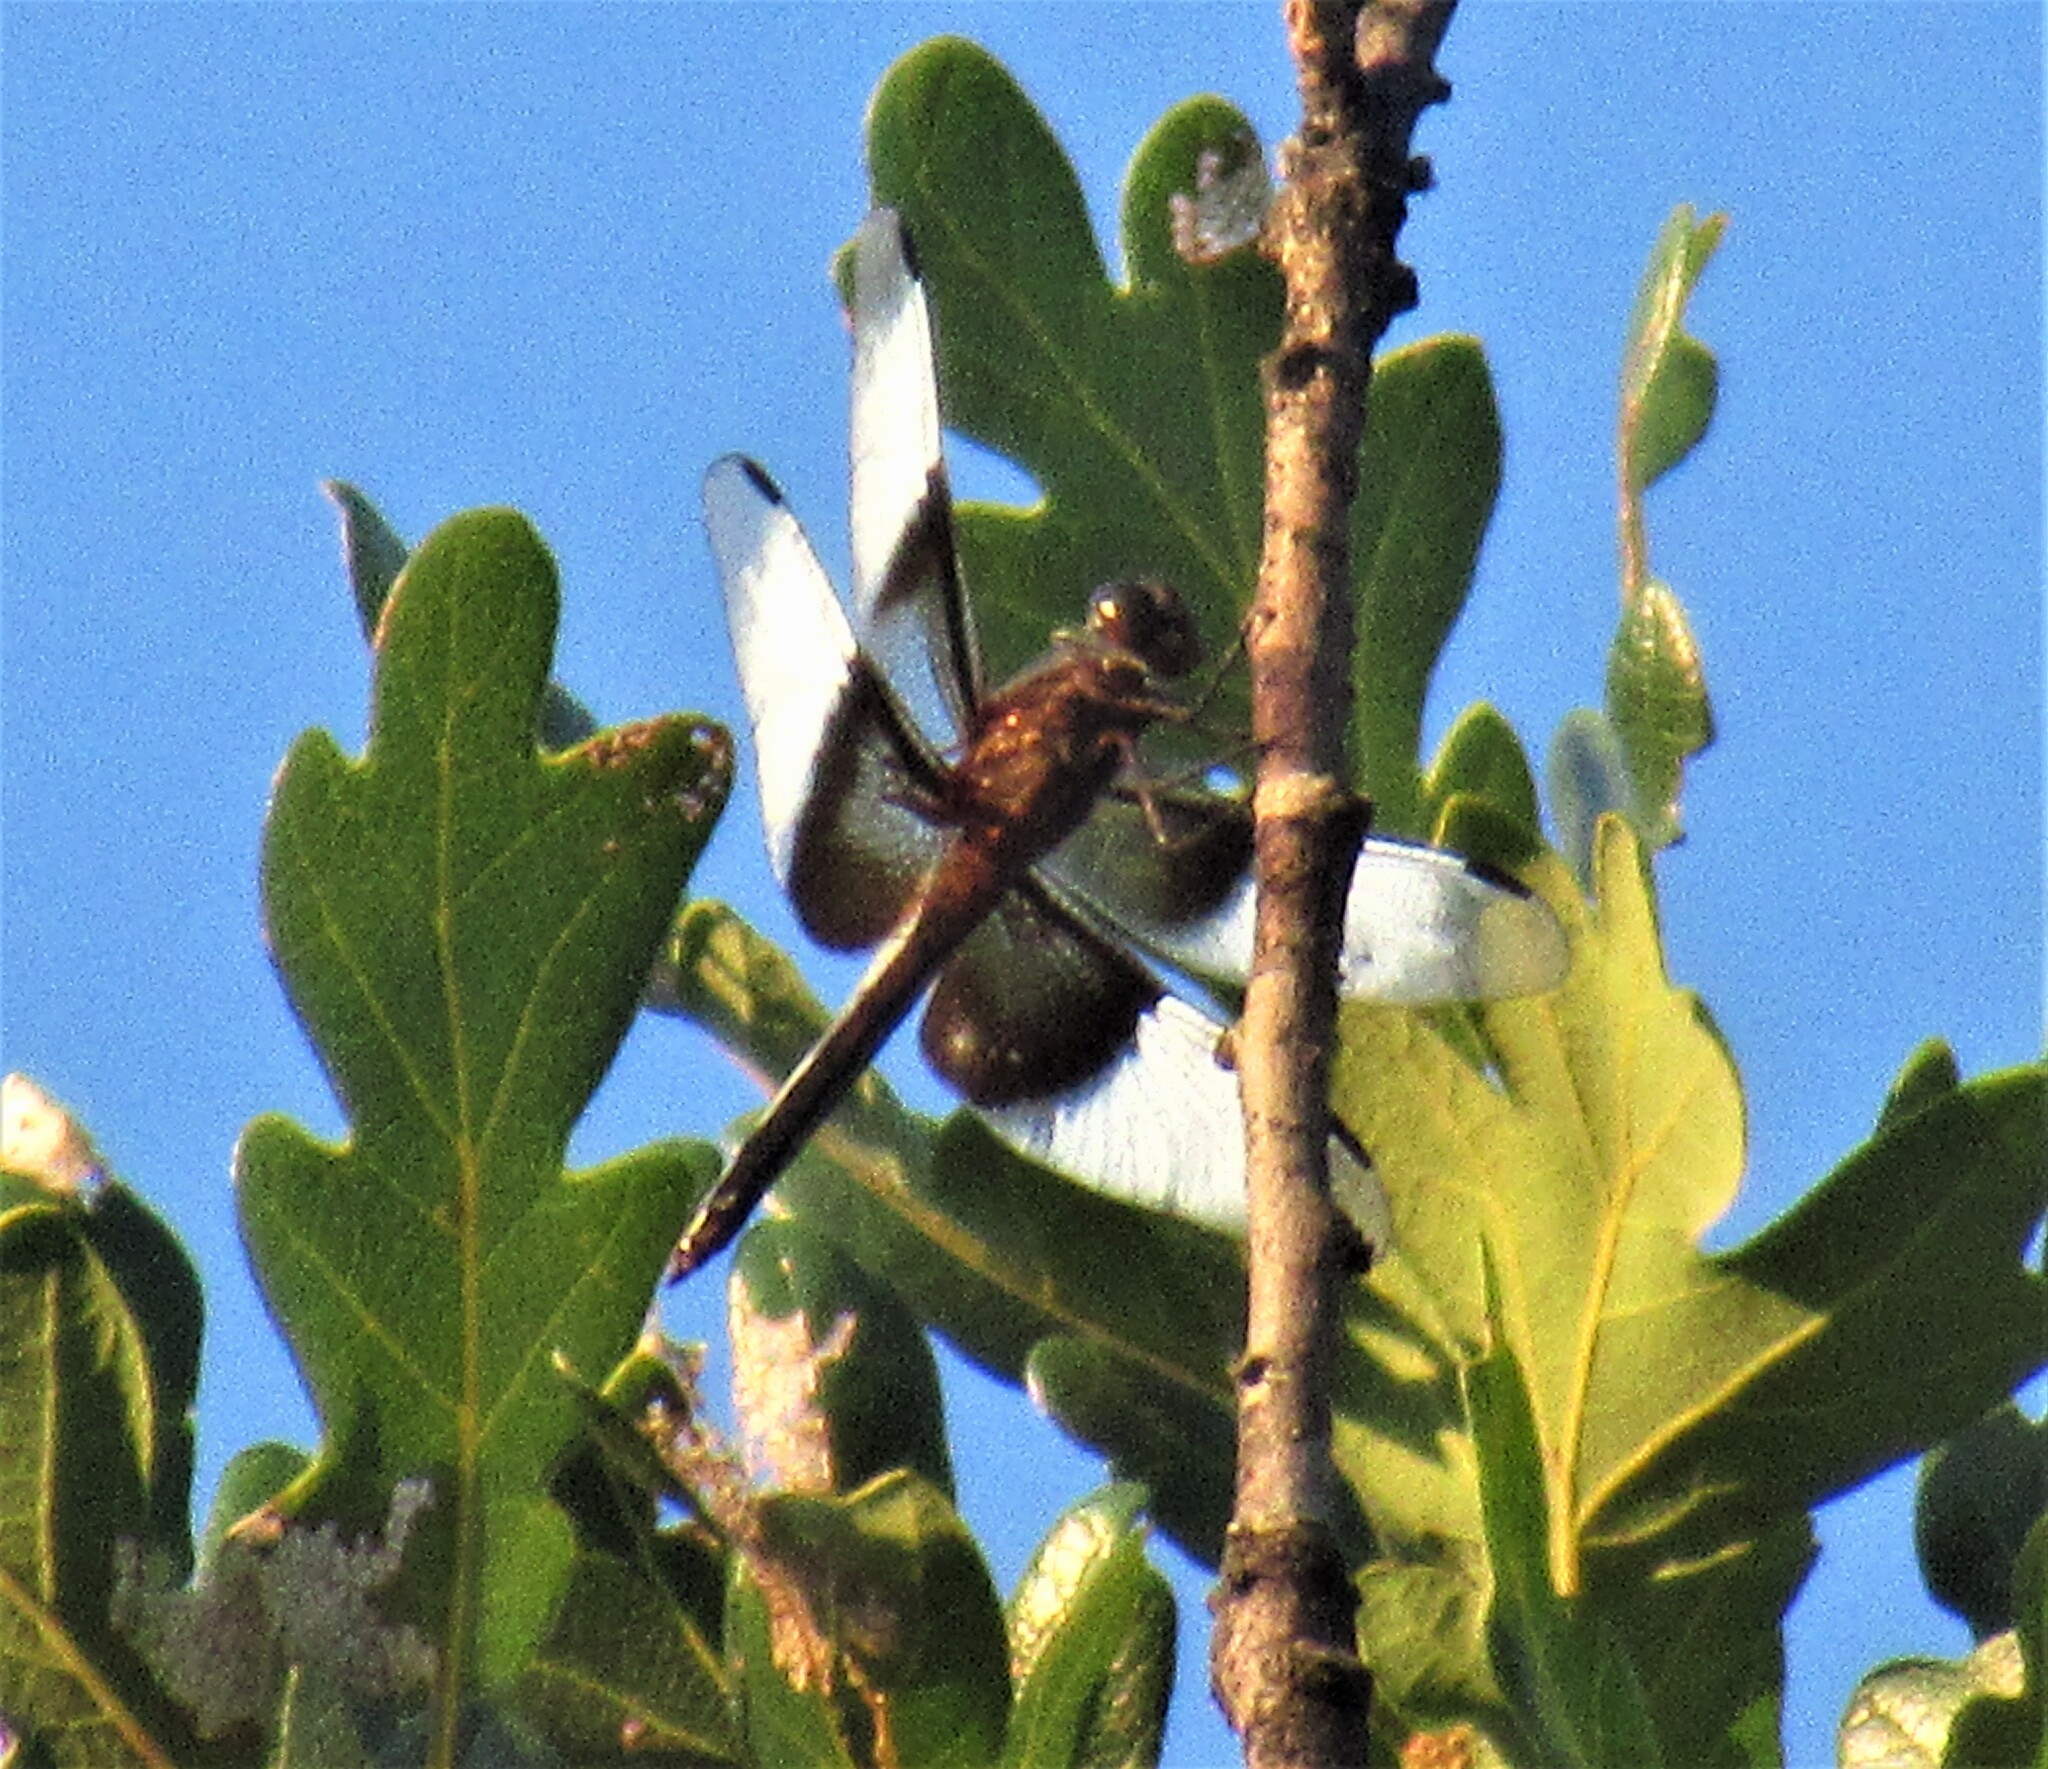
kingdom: Animalia
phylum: Arthropoda
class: Insecta
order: Odonata
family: Libellulidae
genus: Libellula
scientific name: Libellula luctuosa
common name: Widow skimmer
